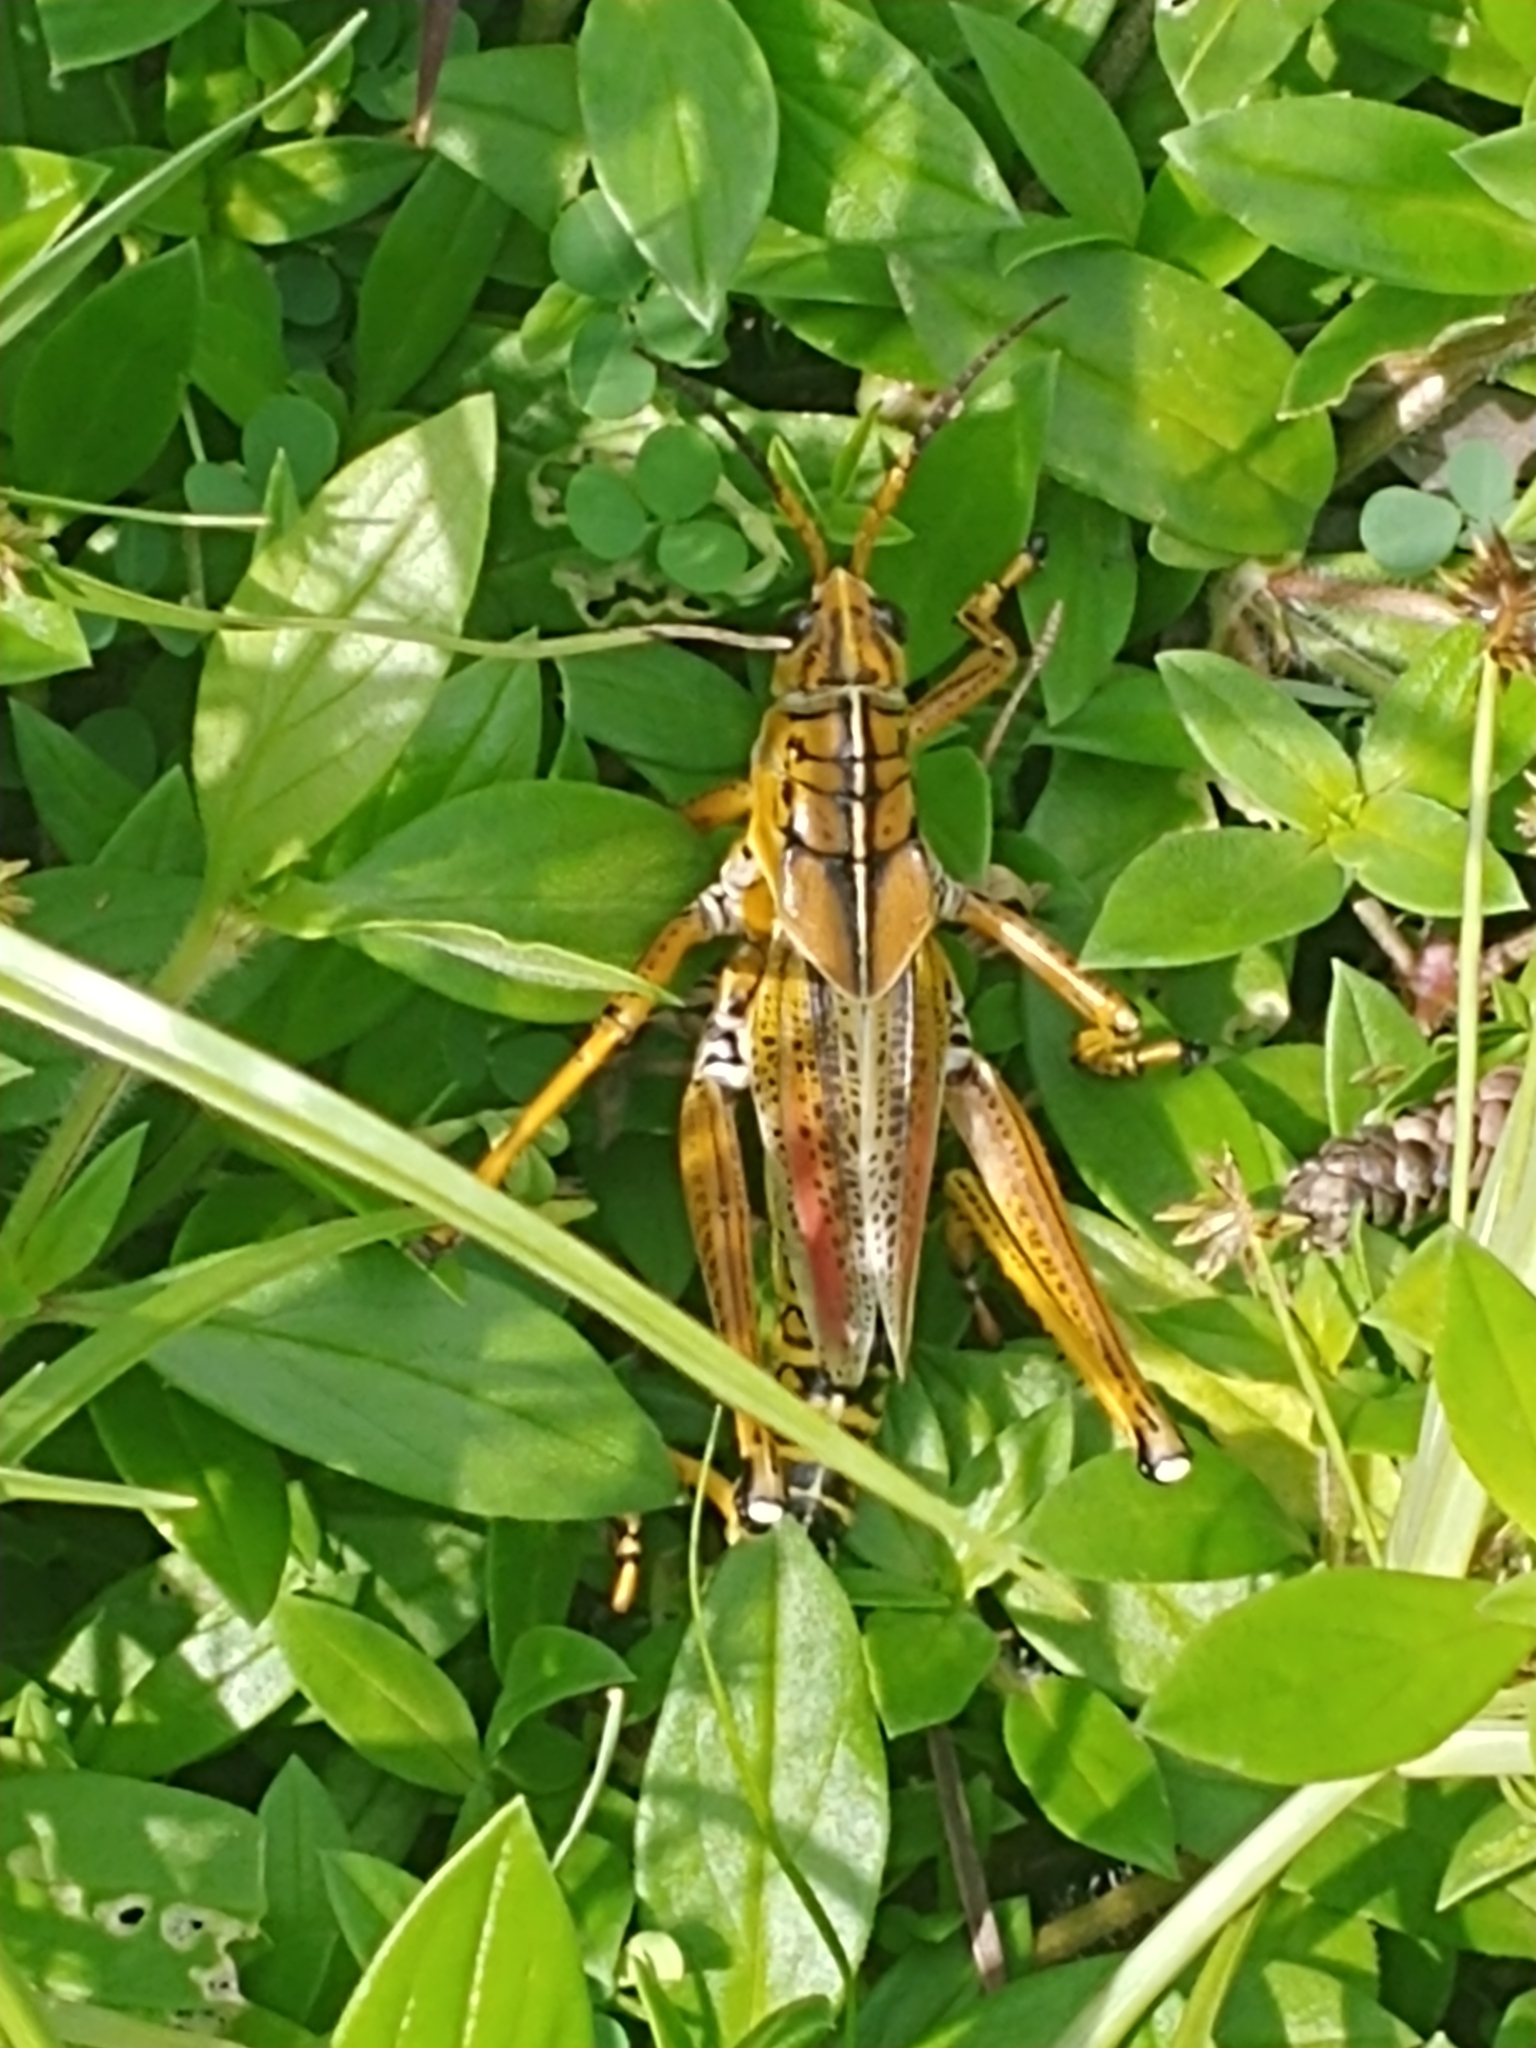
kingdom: Animalia
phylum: Arthropoda
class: Insecta
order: Orthoptera
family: Romaleidae
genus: Romalea
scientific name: Romalea microptera
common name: Eastern lubber grasshopper
